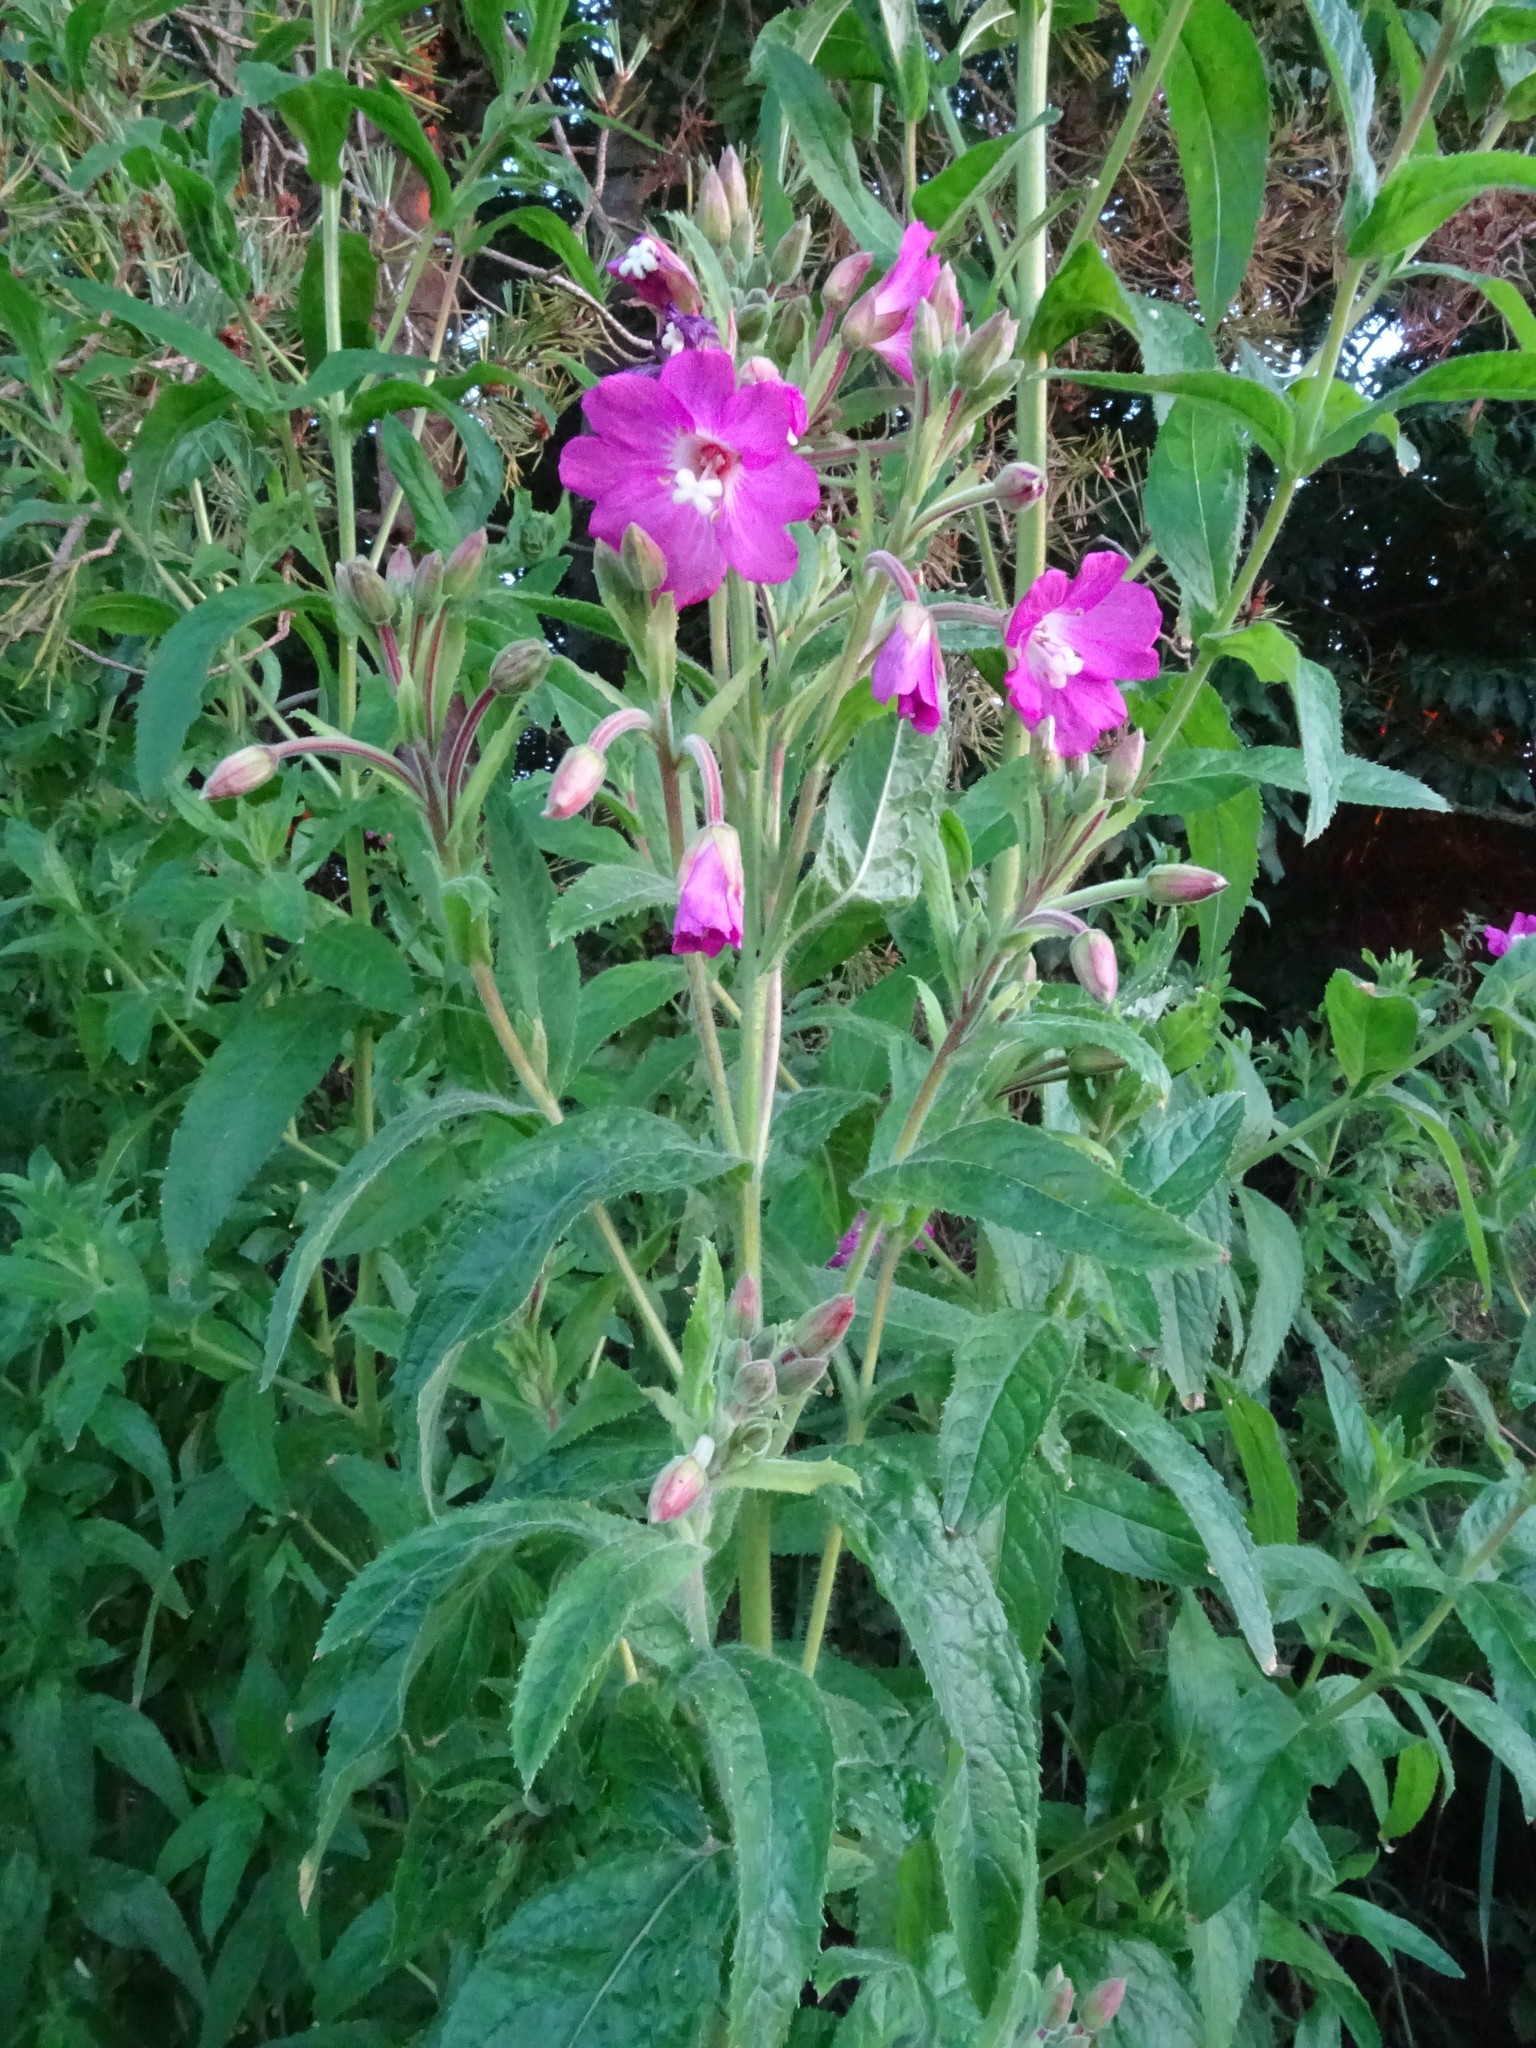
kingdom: Plantae
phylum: Tracheophyta
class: Magnoliopsida
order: Myrtales
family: Onagraceae
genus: Epilobium
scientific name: Epilobium hirsutum
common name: Great willowherb
